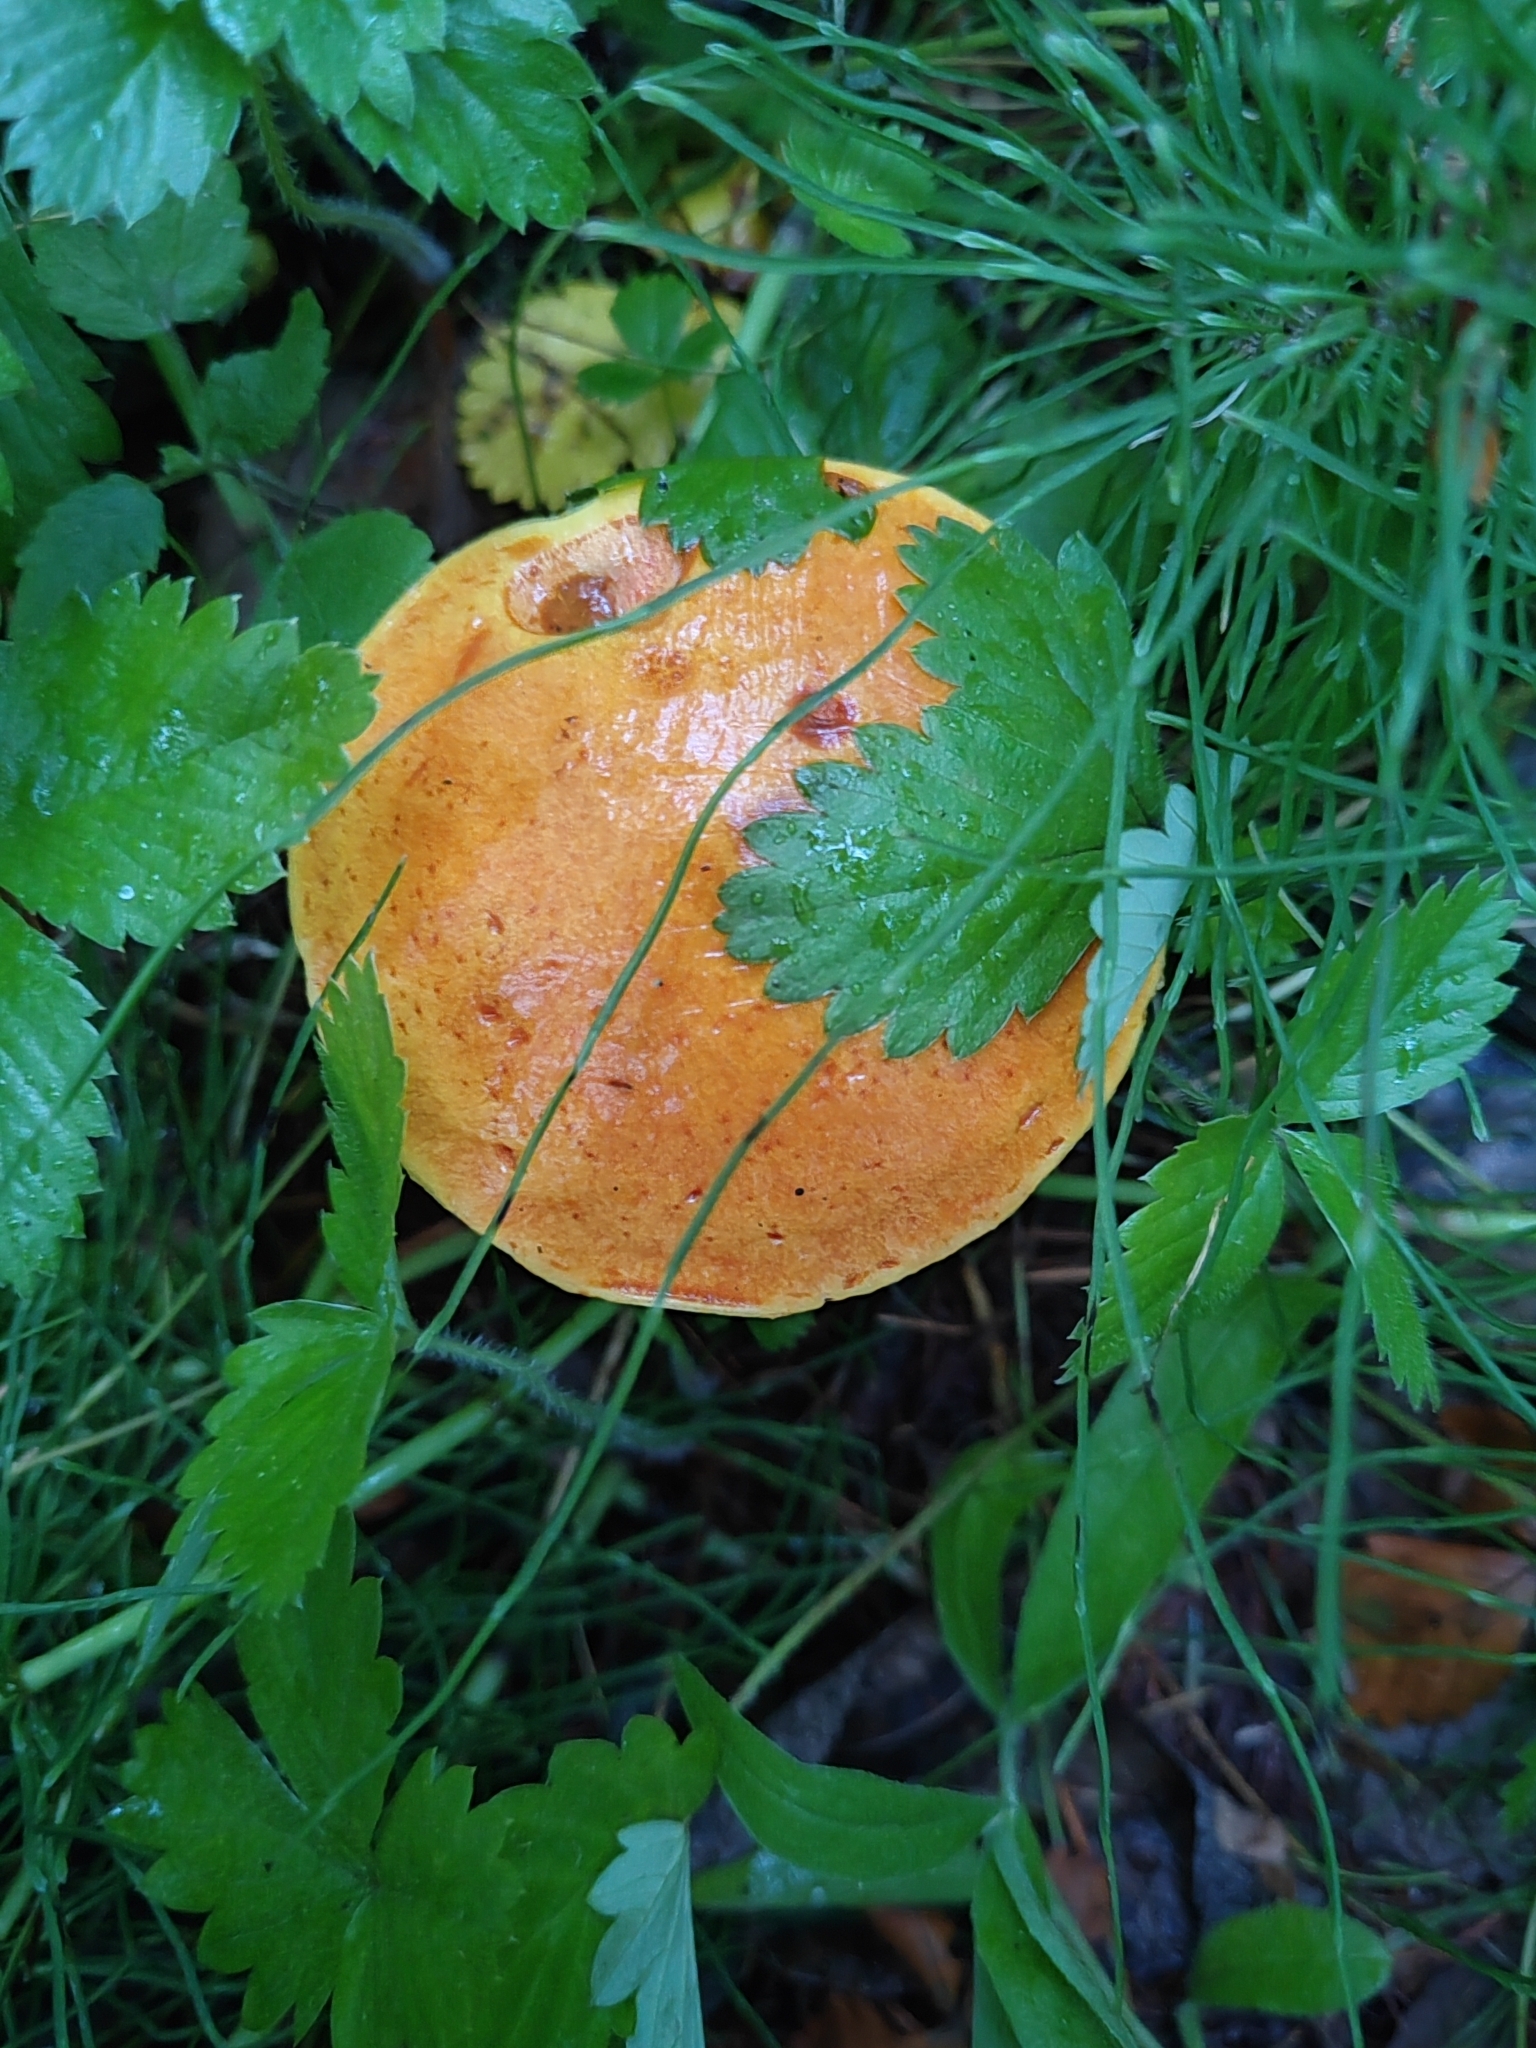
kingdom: Fungi
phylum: Basidiomycota
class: Agaricomycetes
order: Boletales
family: Suillaceae
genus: Suillus
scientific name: Suillus grevillei
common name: Larch bolete
